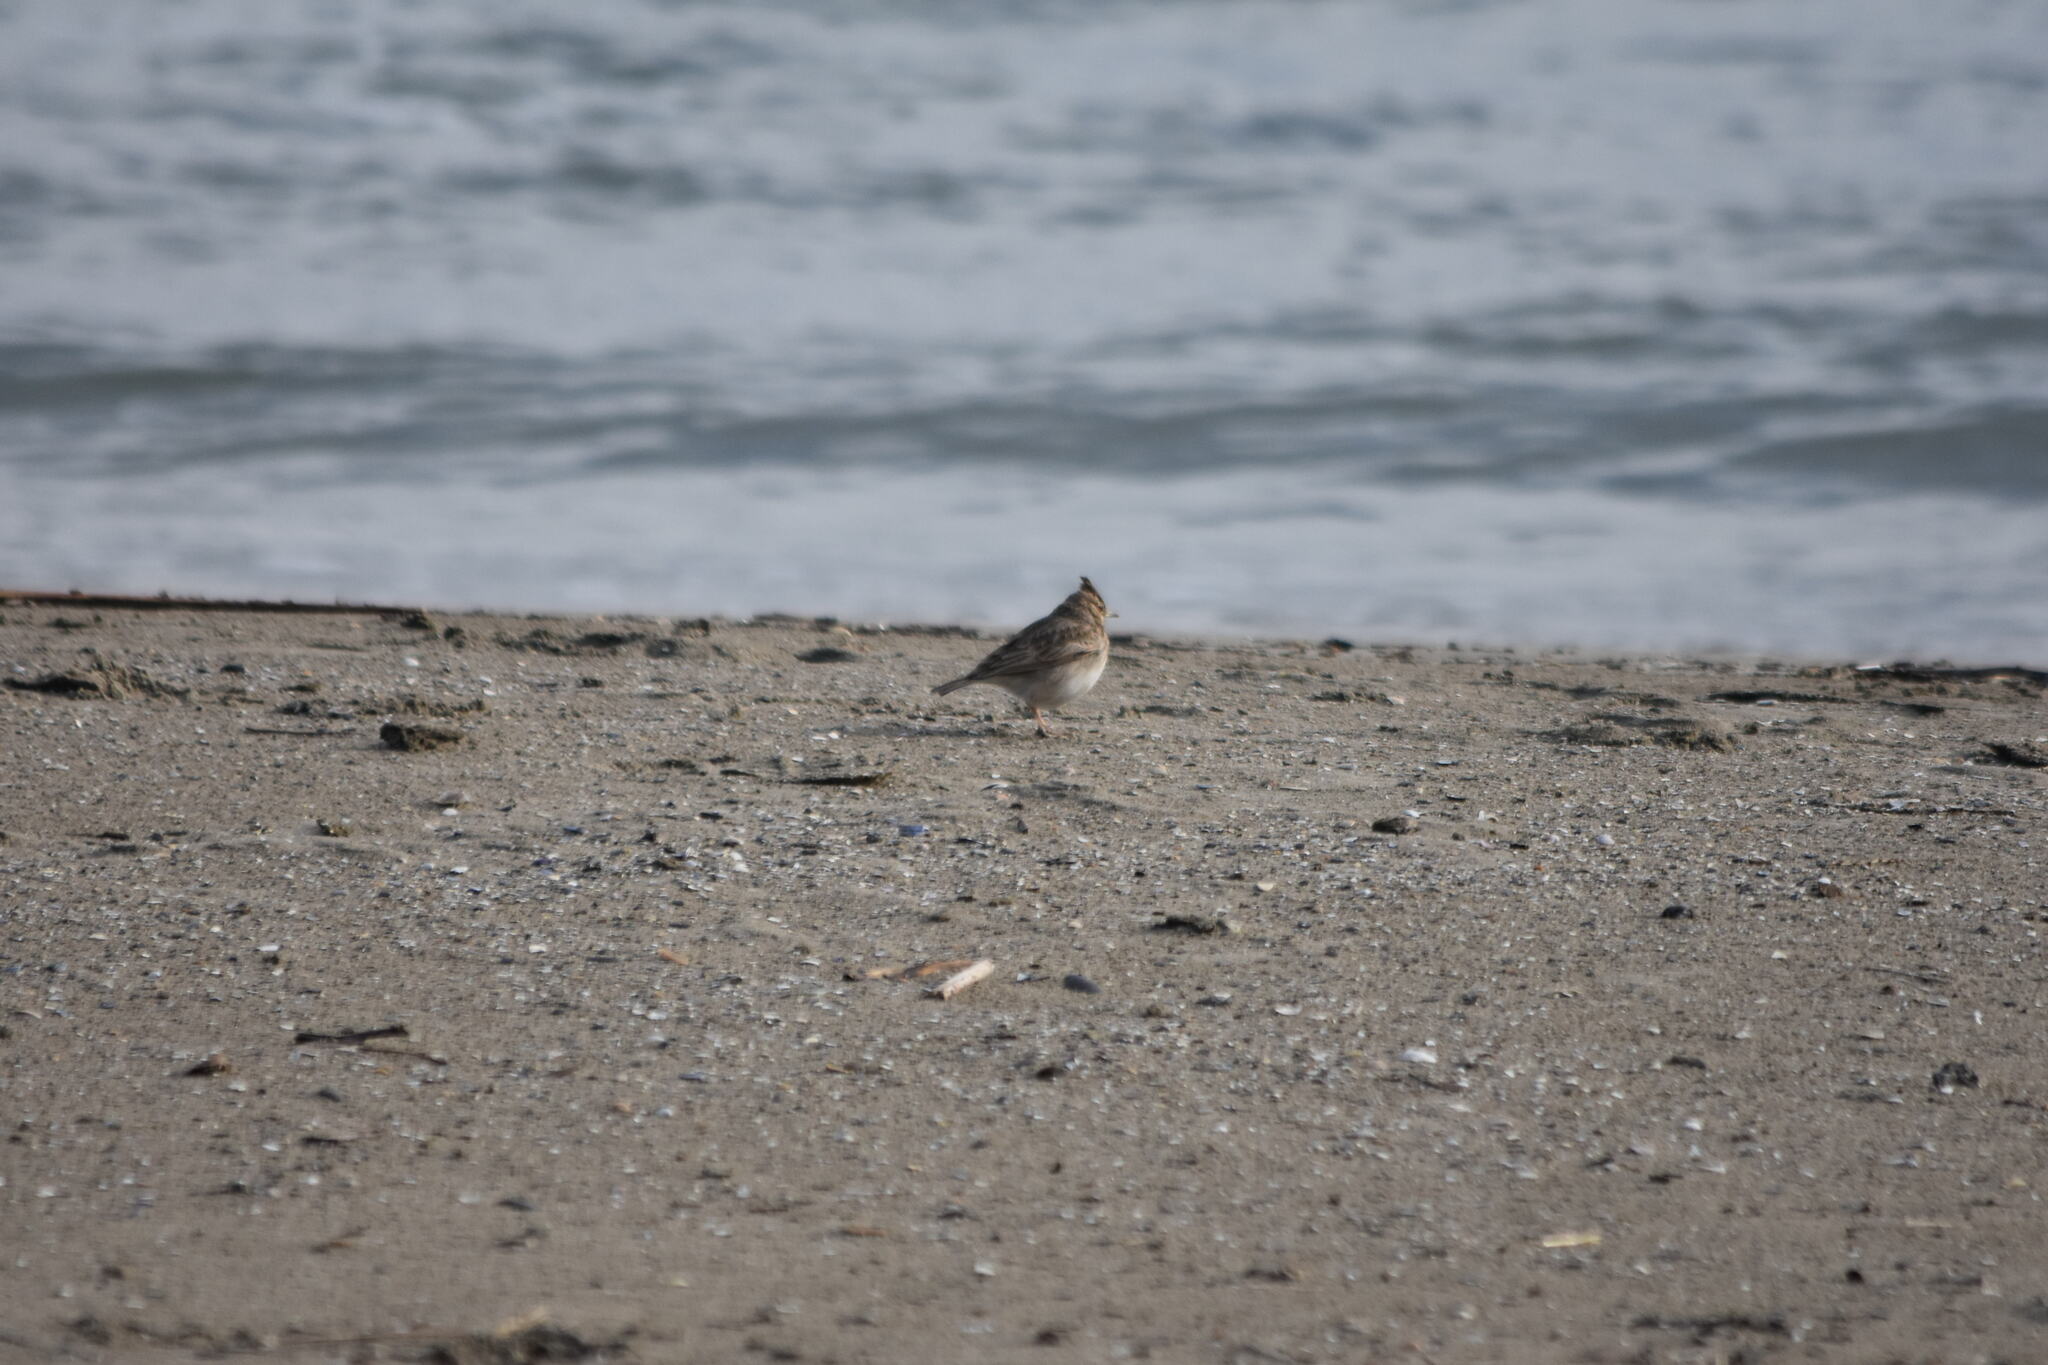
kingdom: Animalia
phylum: Chordata
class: Aves
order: Passeriformes
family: Alaudidae
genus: Galerida
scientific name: Galerida cristata
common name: Crested lark
